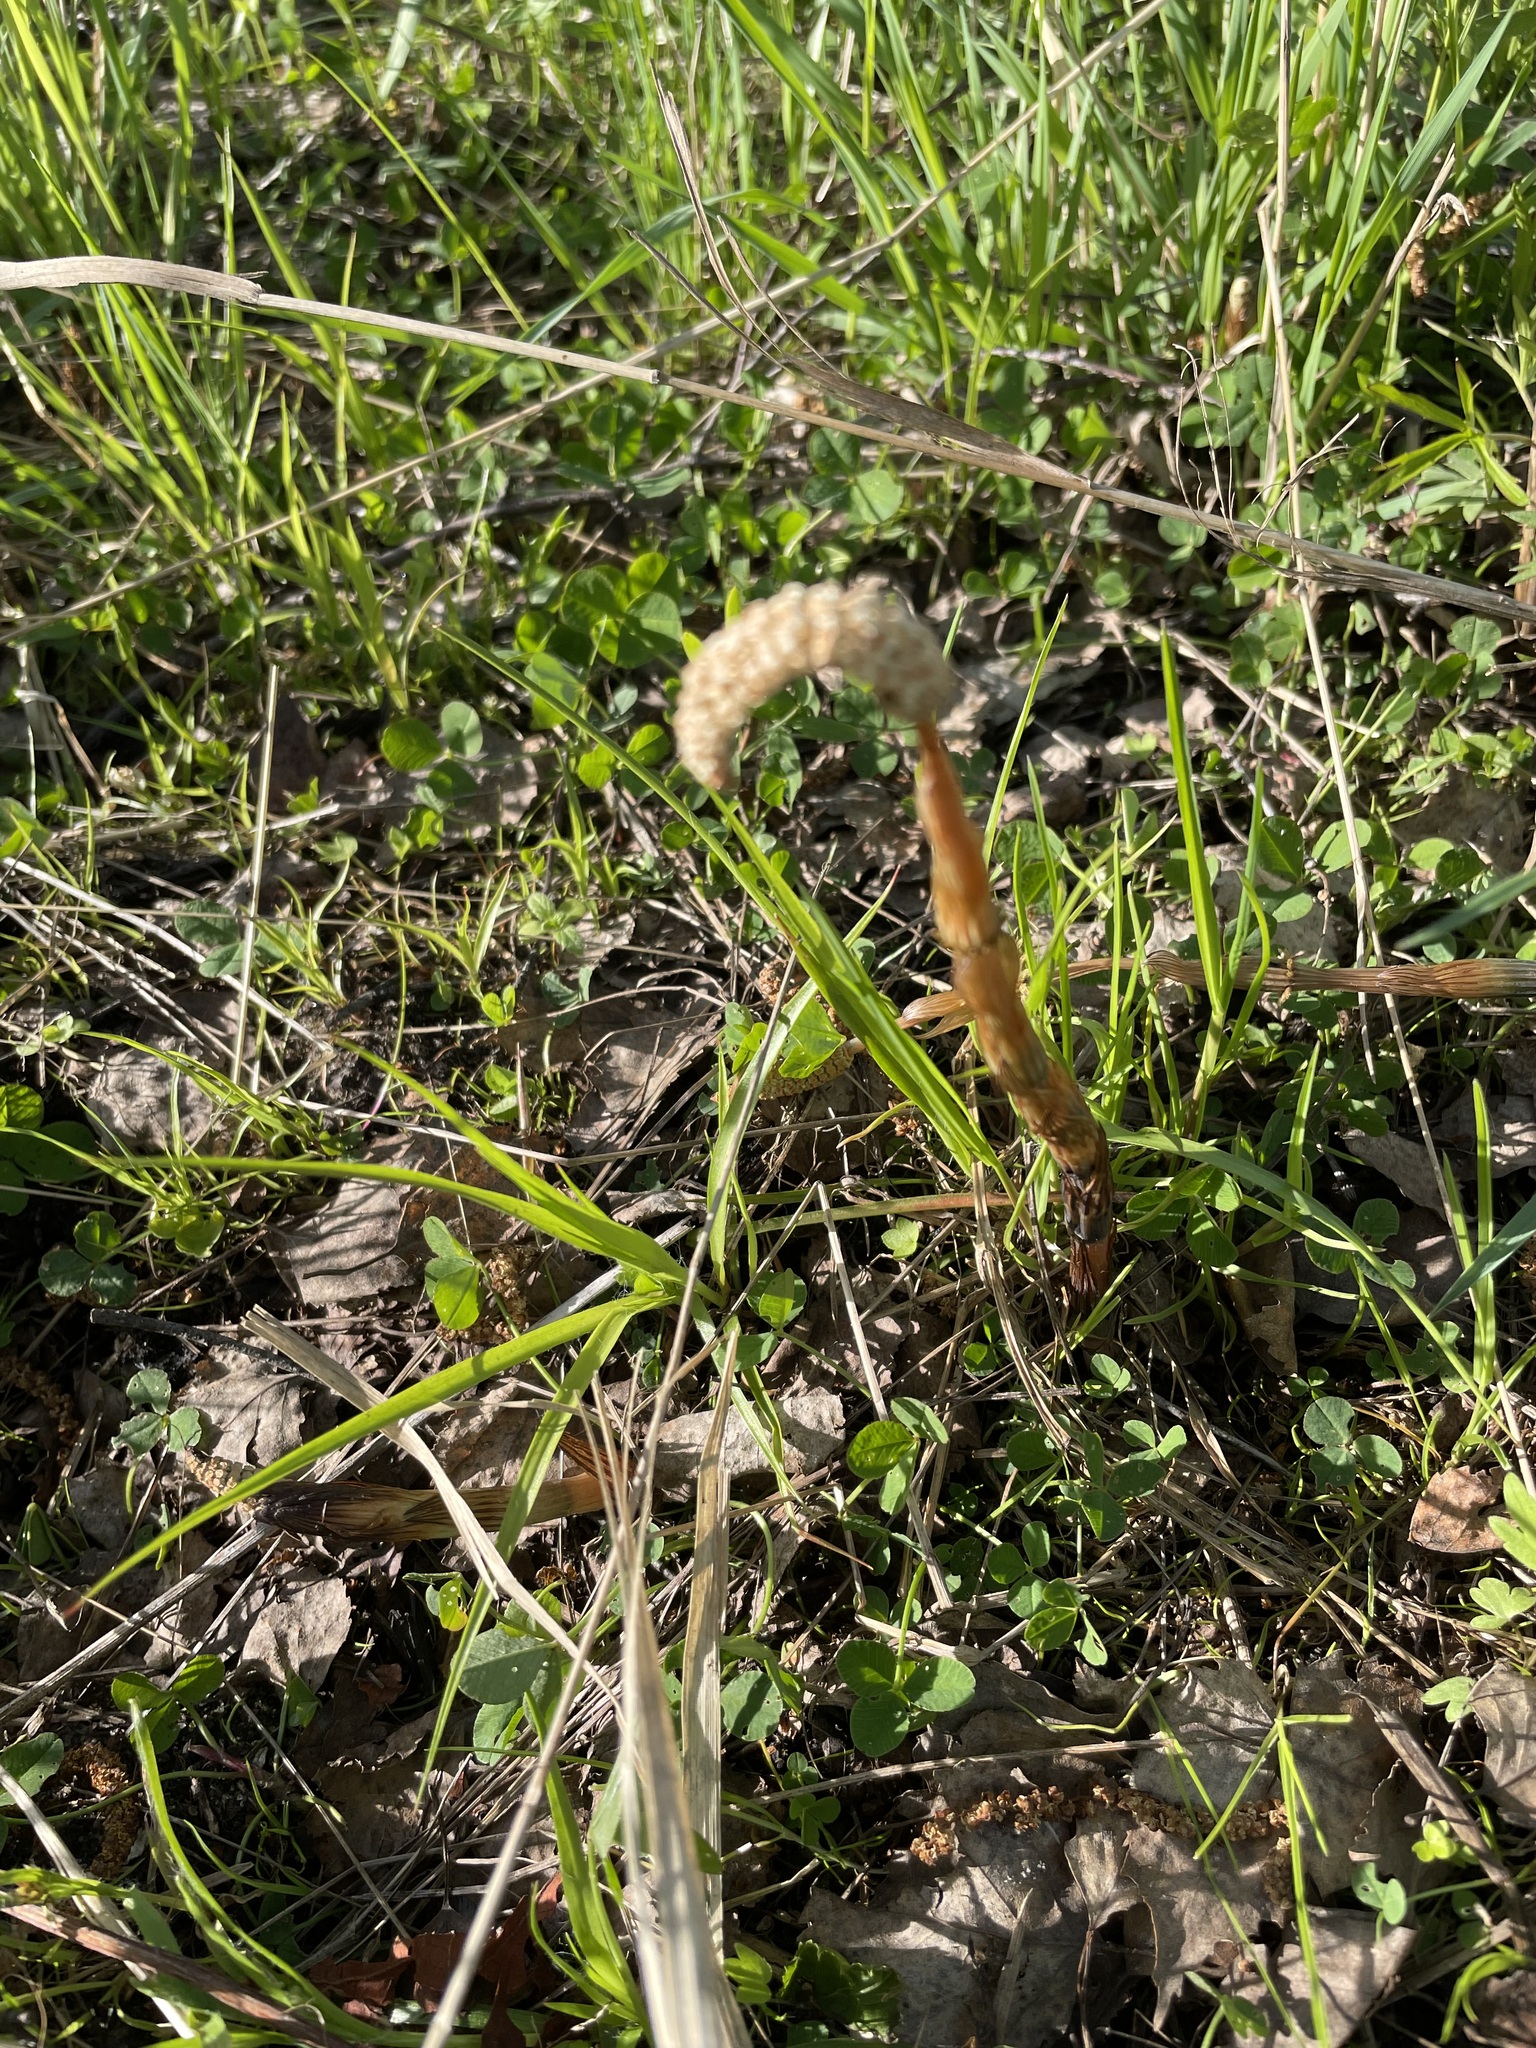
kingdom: Plantae
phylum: Tracheophyta
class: Polypodiopsida
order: Equisetales
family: Equisetaceae
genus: Equisetum
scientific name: Equisetum arvense
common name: Field horsetail
